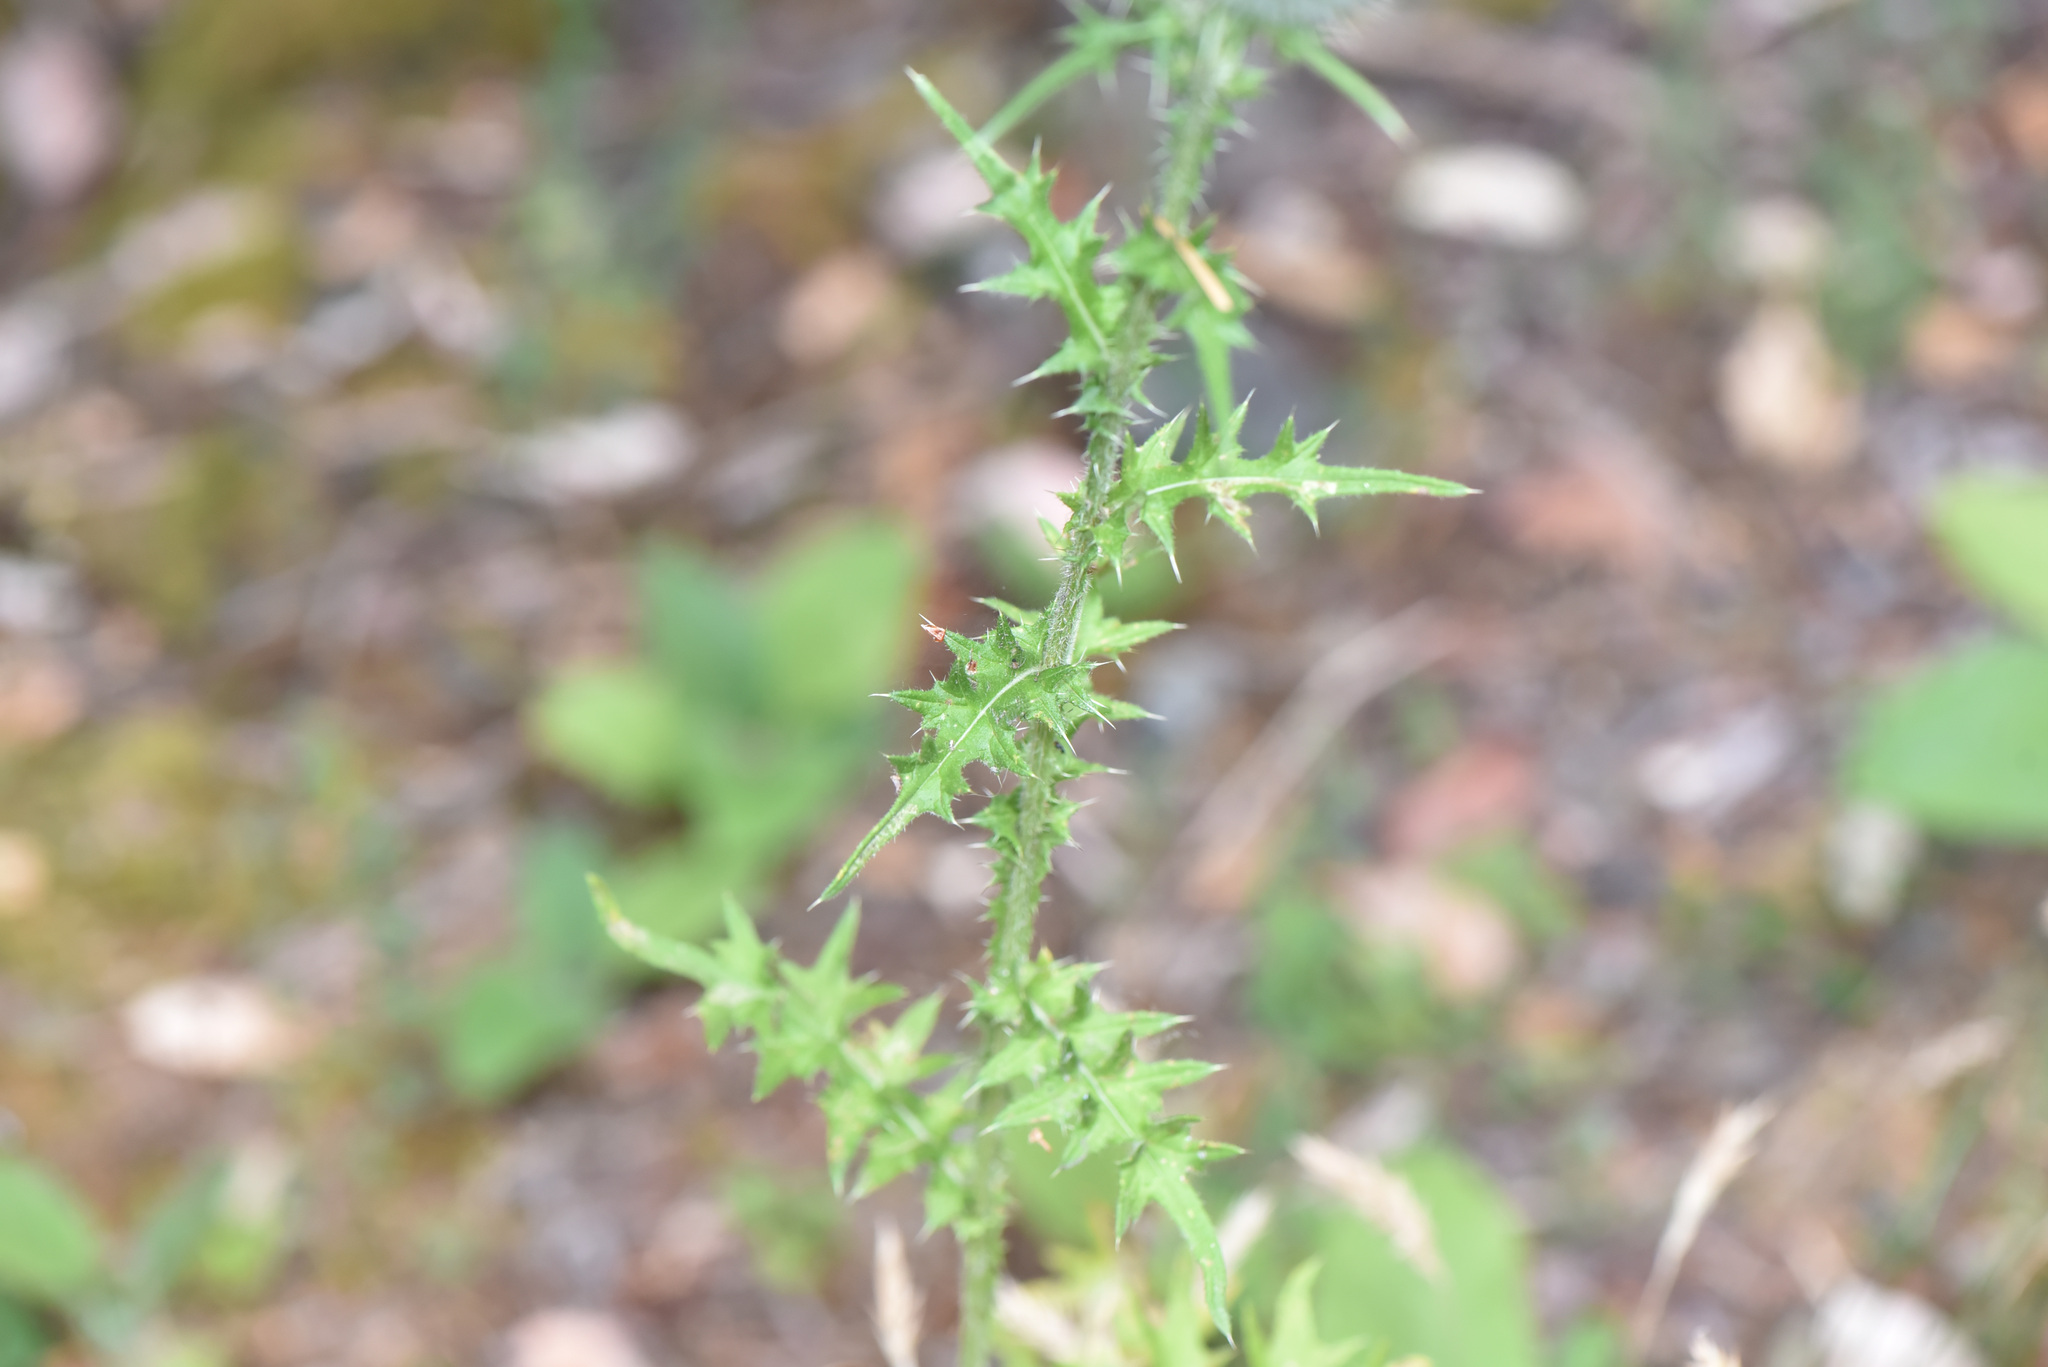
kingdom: Plantae
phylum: Tracheophyta
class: Magnoliopsida
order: Asterales
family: Asteraceae
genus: Cirsium
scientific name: Cirsium vulgare
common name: Bull thistle
